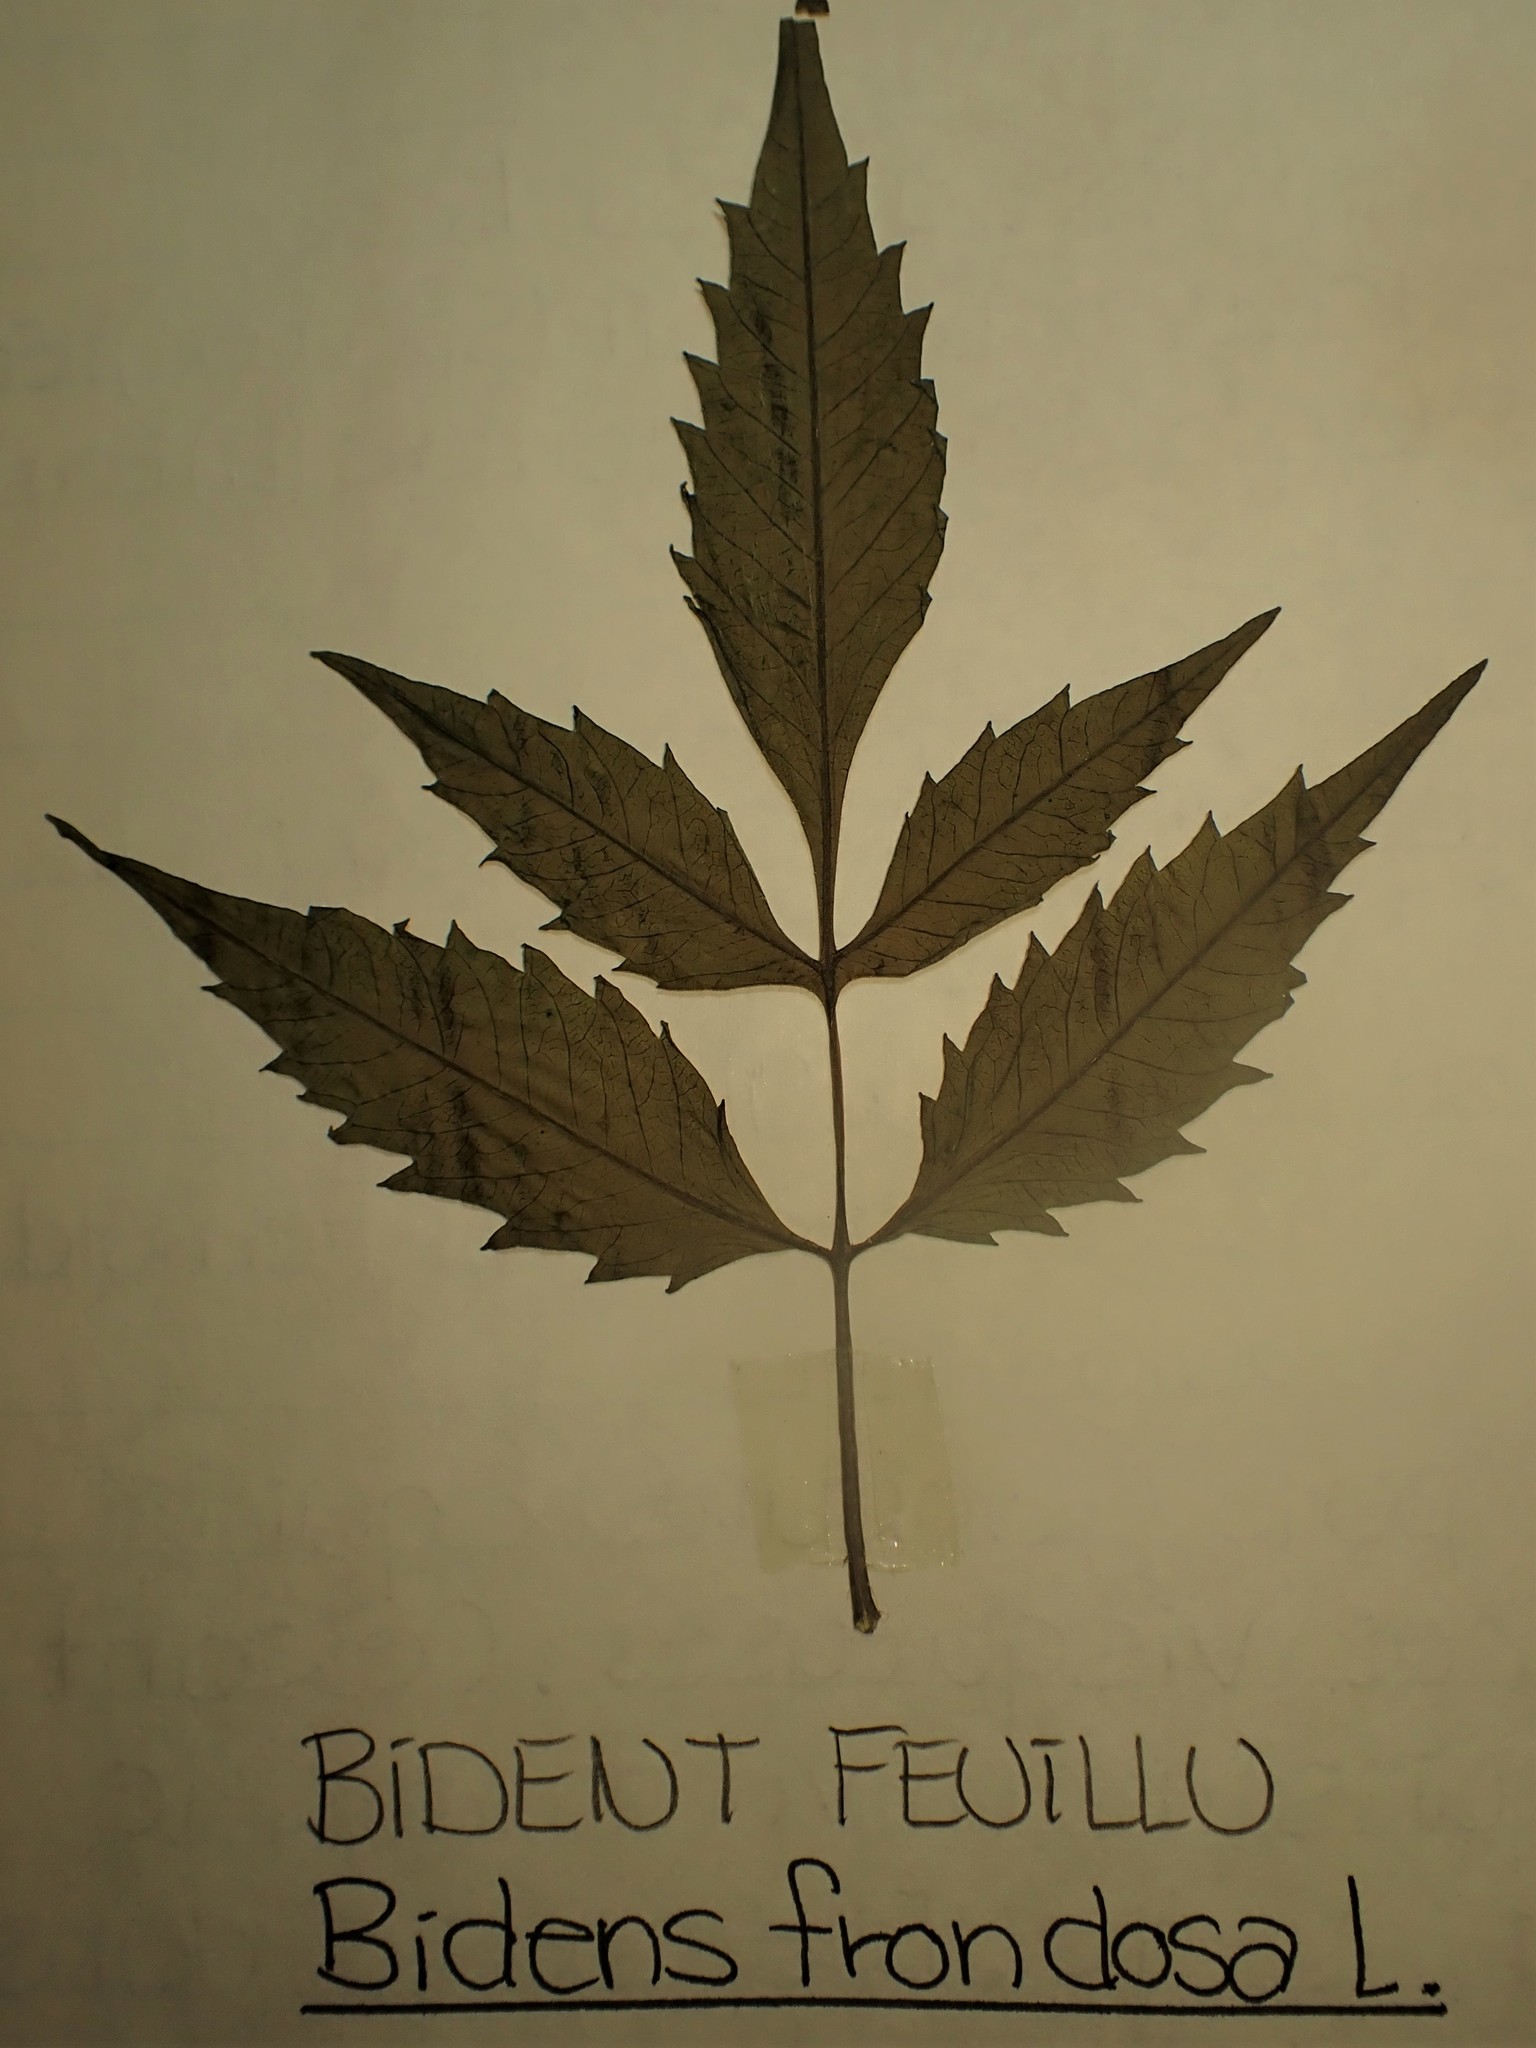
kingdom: Plantae
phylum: Tracheophyta
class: Magnoliopsida
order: Asterales
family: Asteraceae
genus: Bidens
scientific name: Bidens frondosa
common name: Beggarticks
